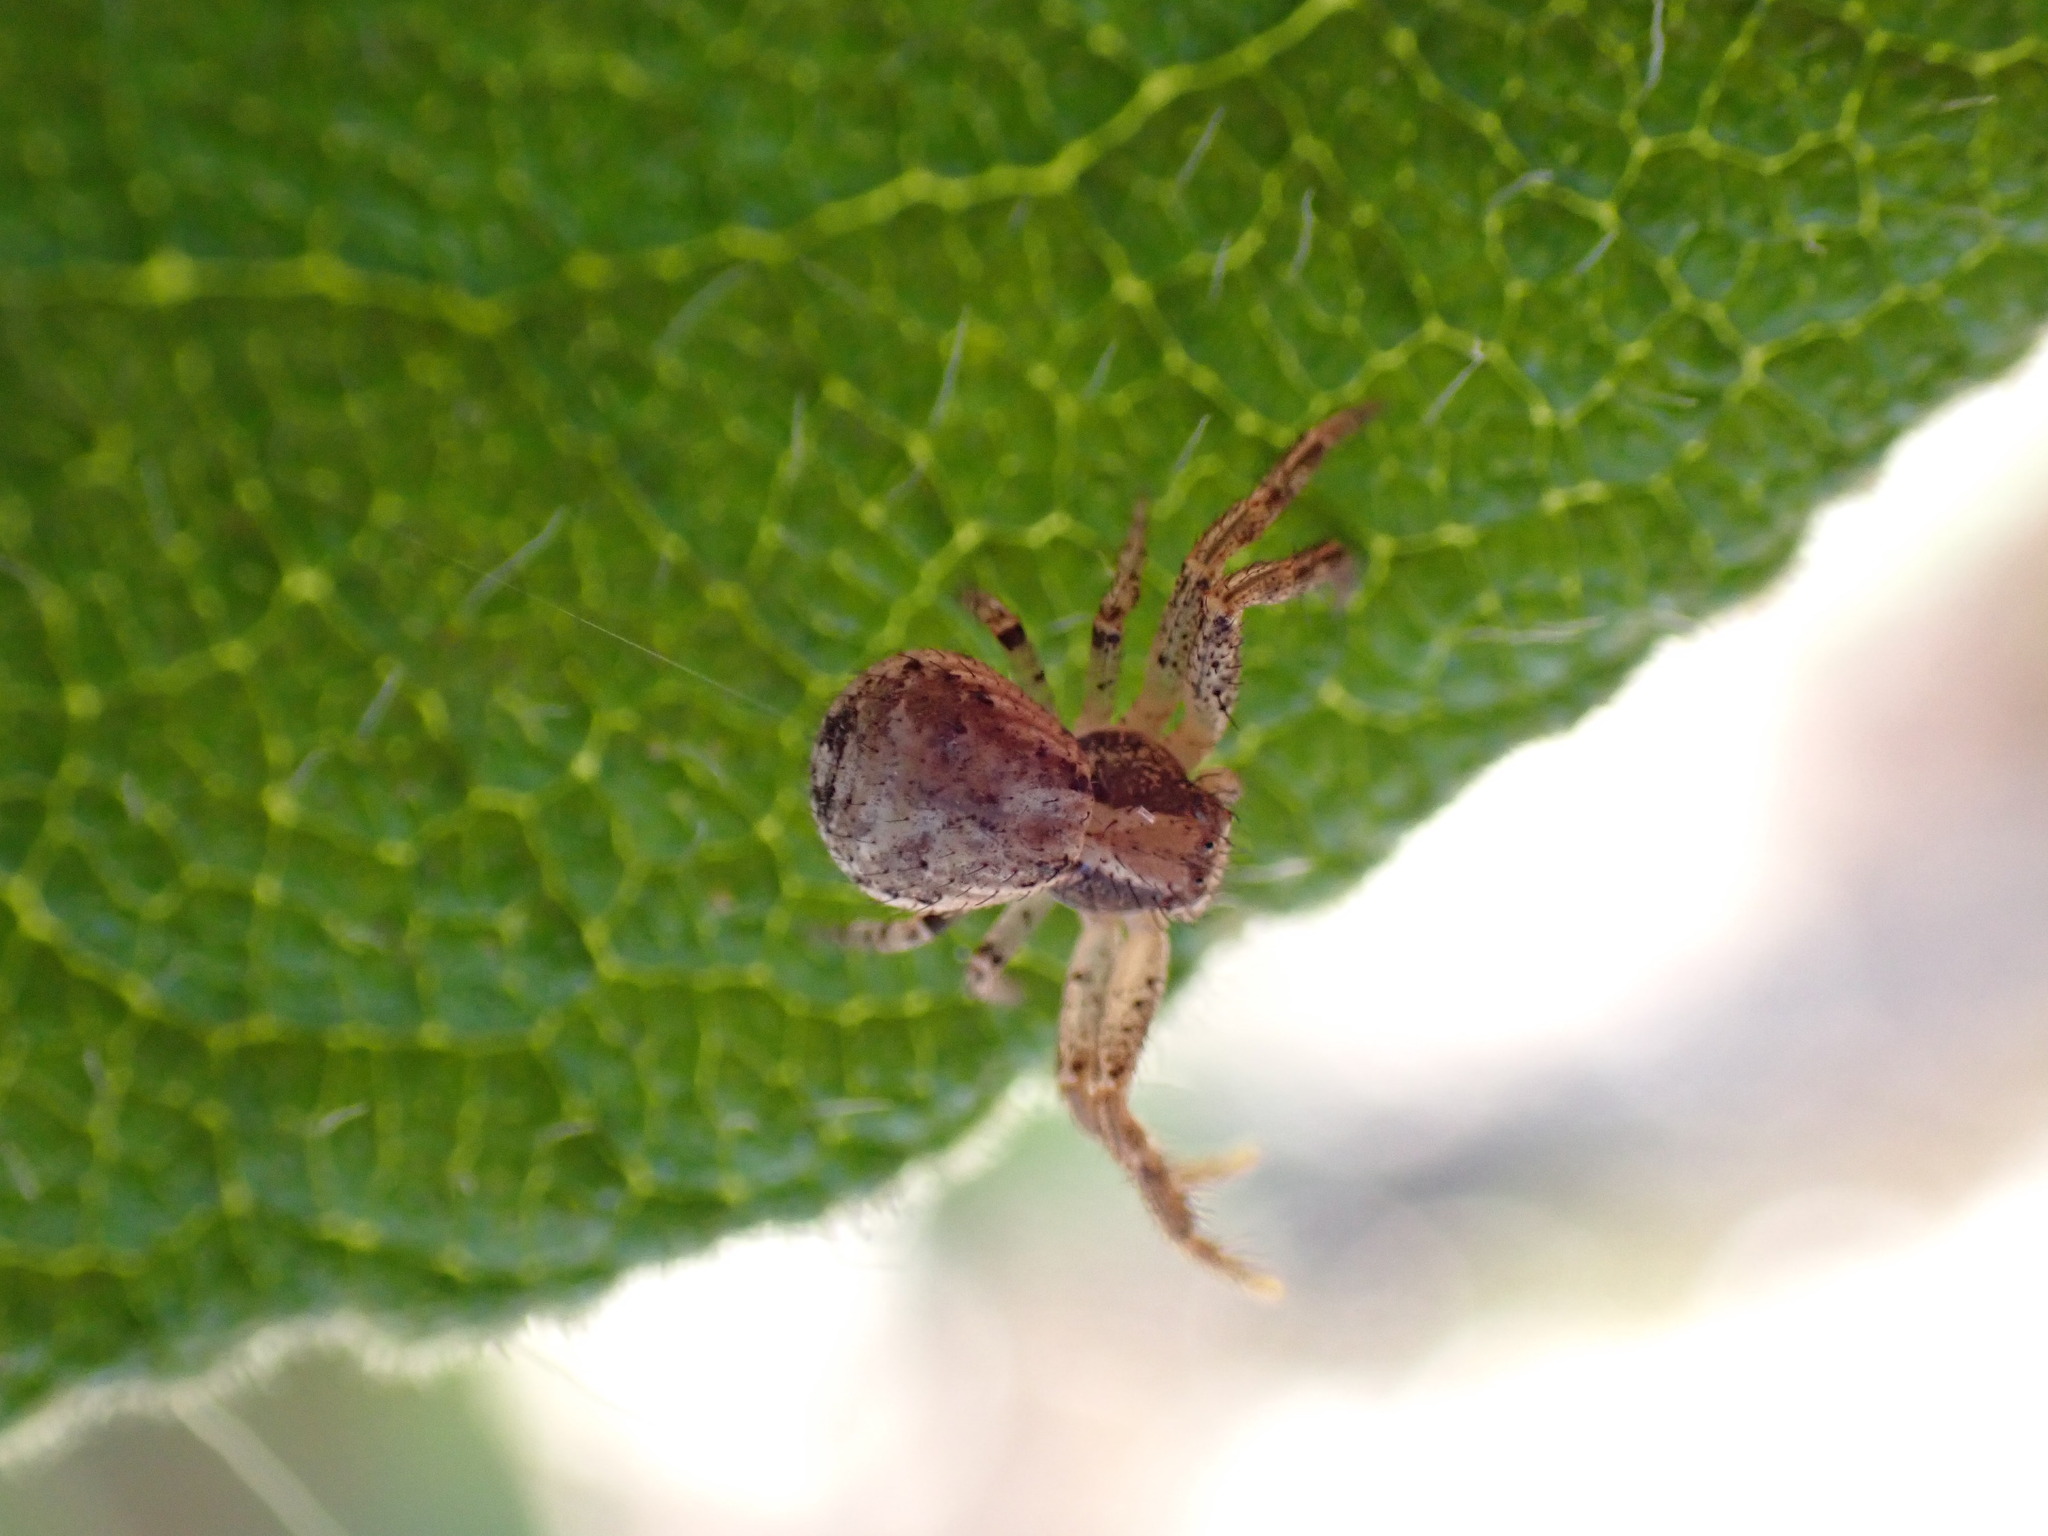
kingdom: Animalia
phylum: Arthropoda
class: Arachnida
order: Araneae
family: Thomisidae
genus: Xysticus
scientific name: Xysticus verneaui
